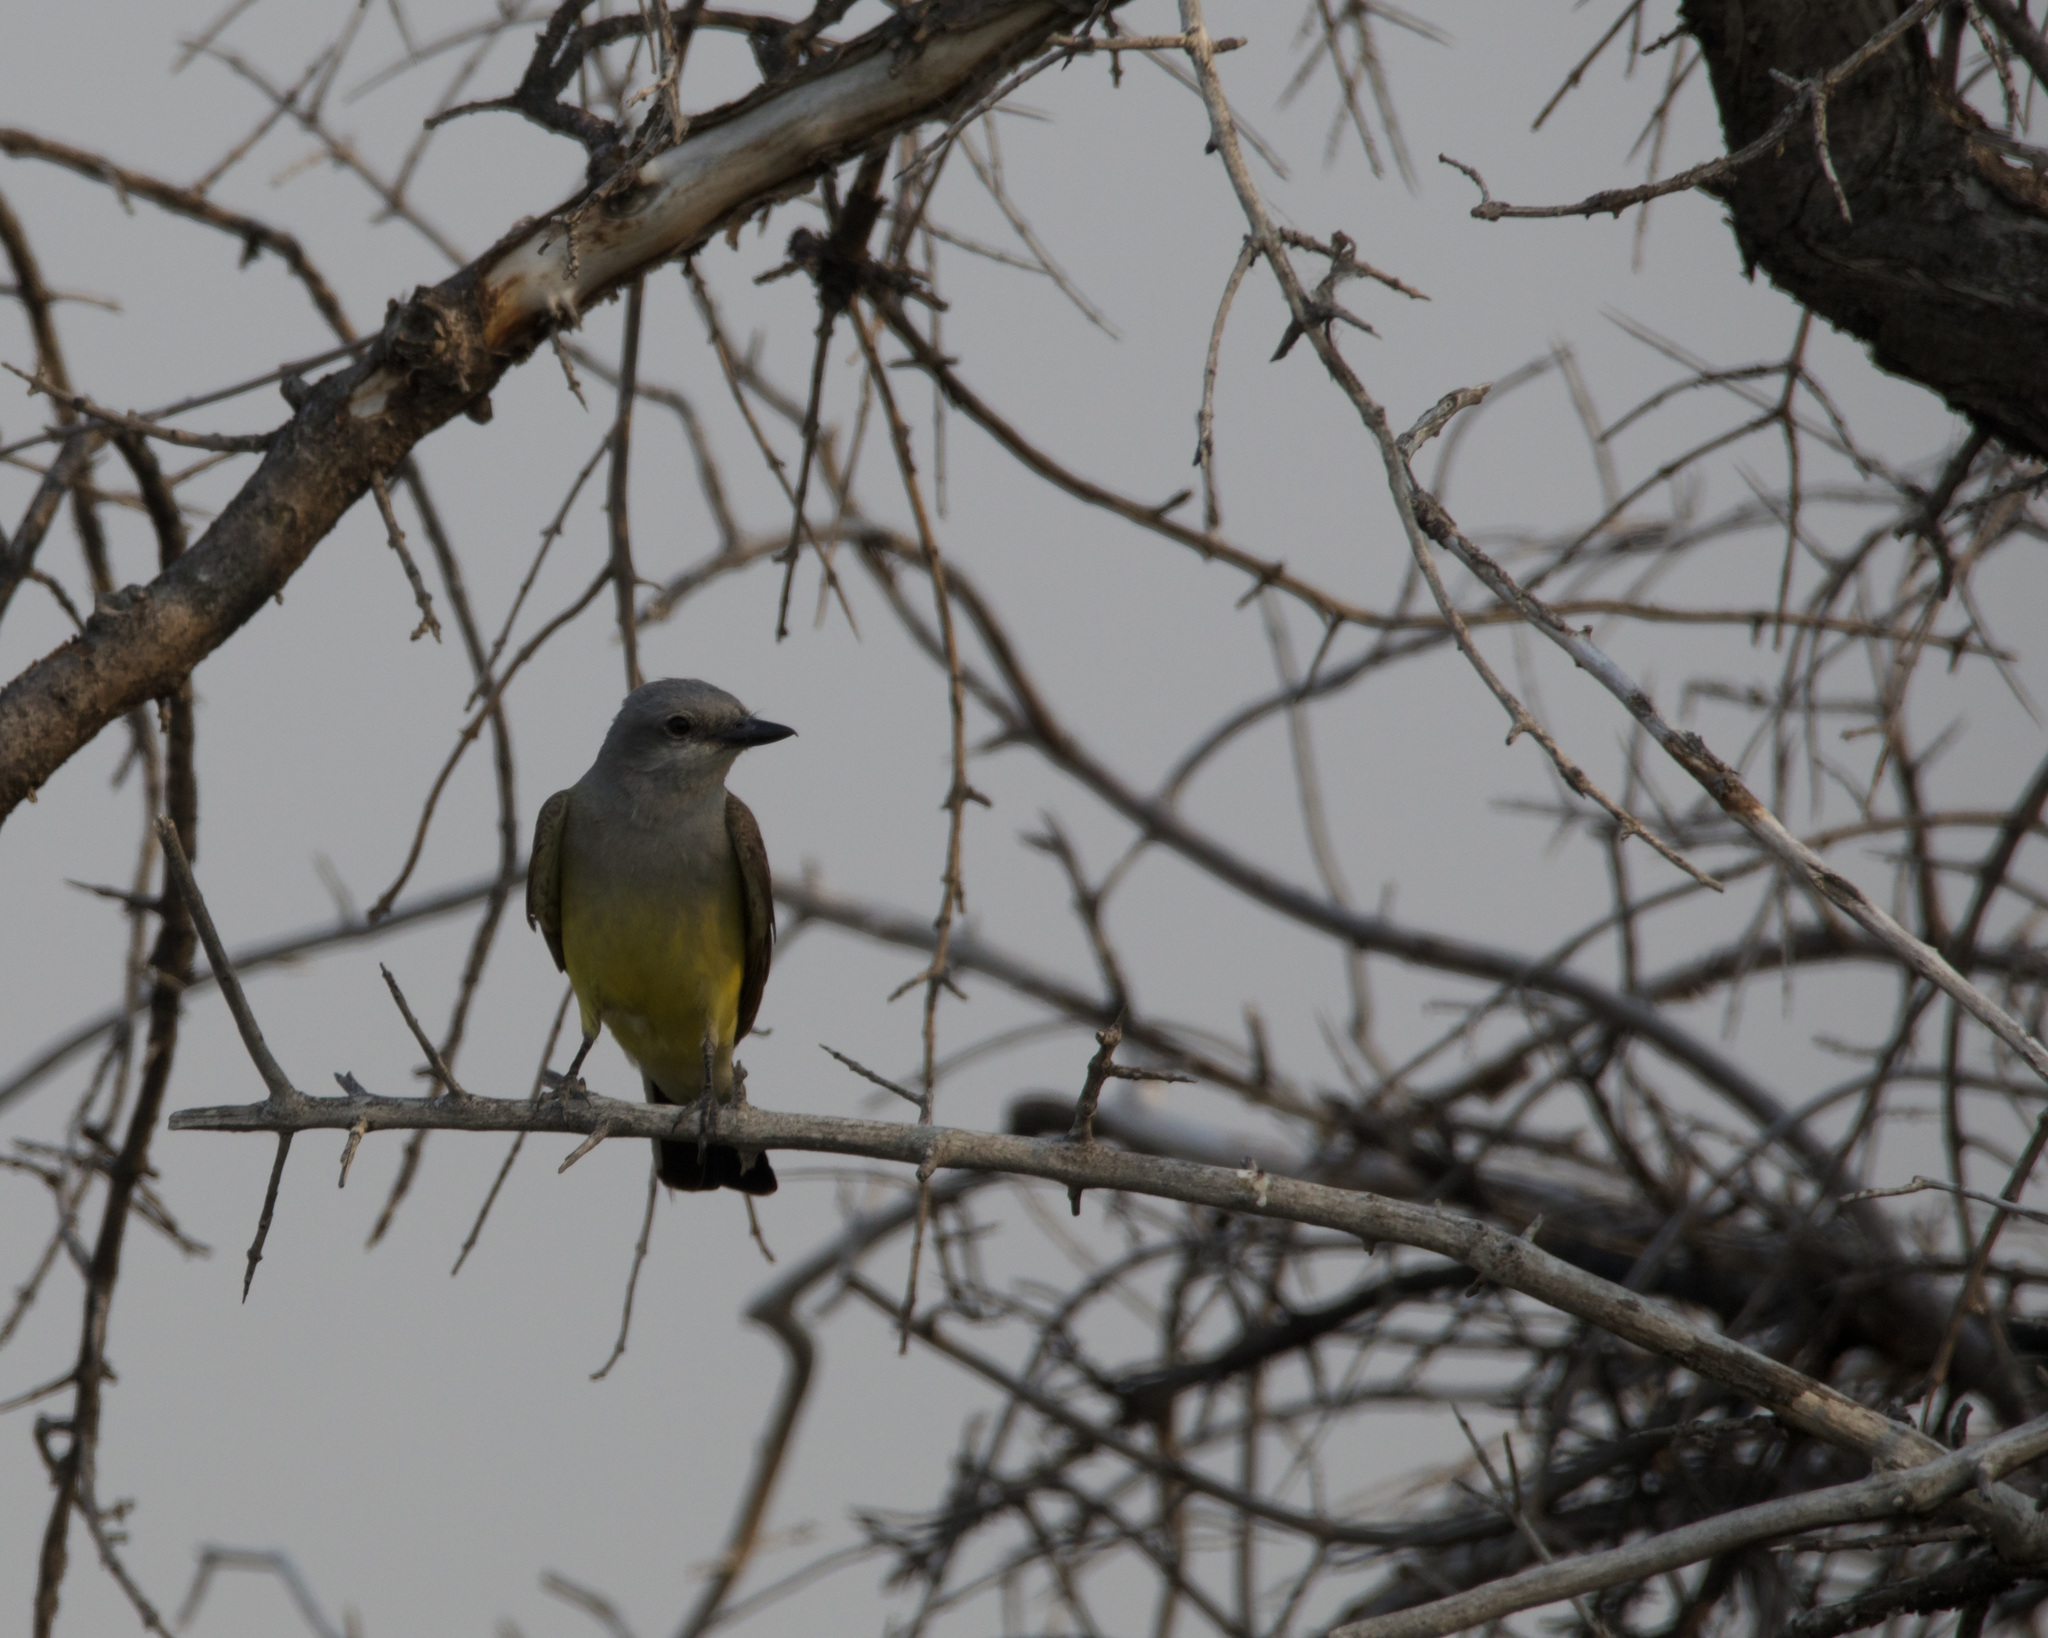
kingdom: Animalia
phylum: Chordata
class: Aves
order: Passeriformes
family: Tyrannidae
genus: Tyrannus
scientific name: Tyrannus verticalis
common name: Western kingbird
